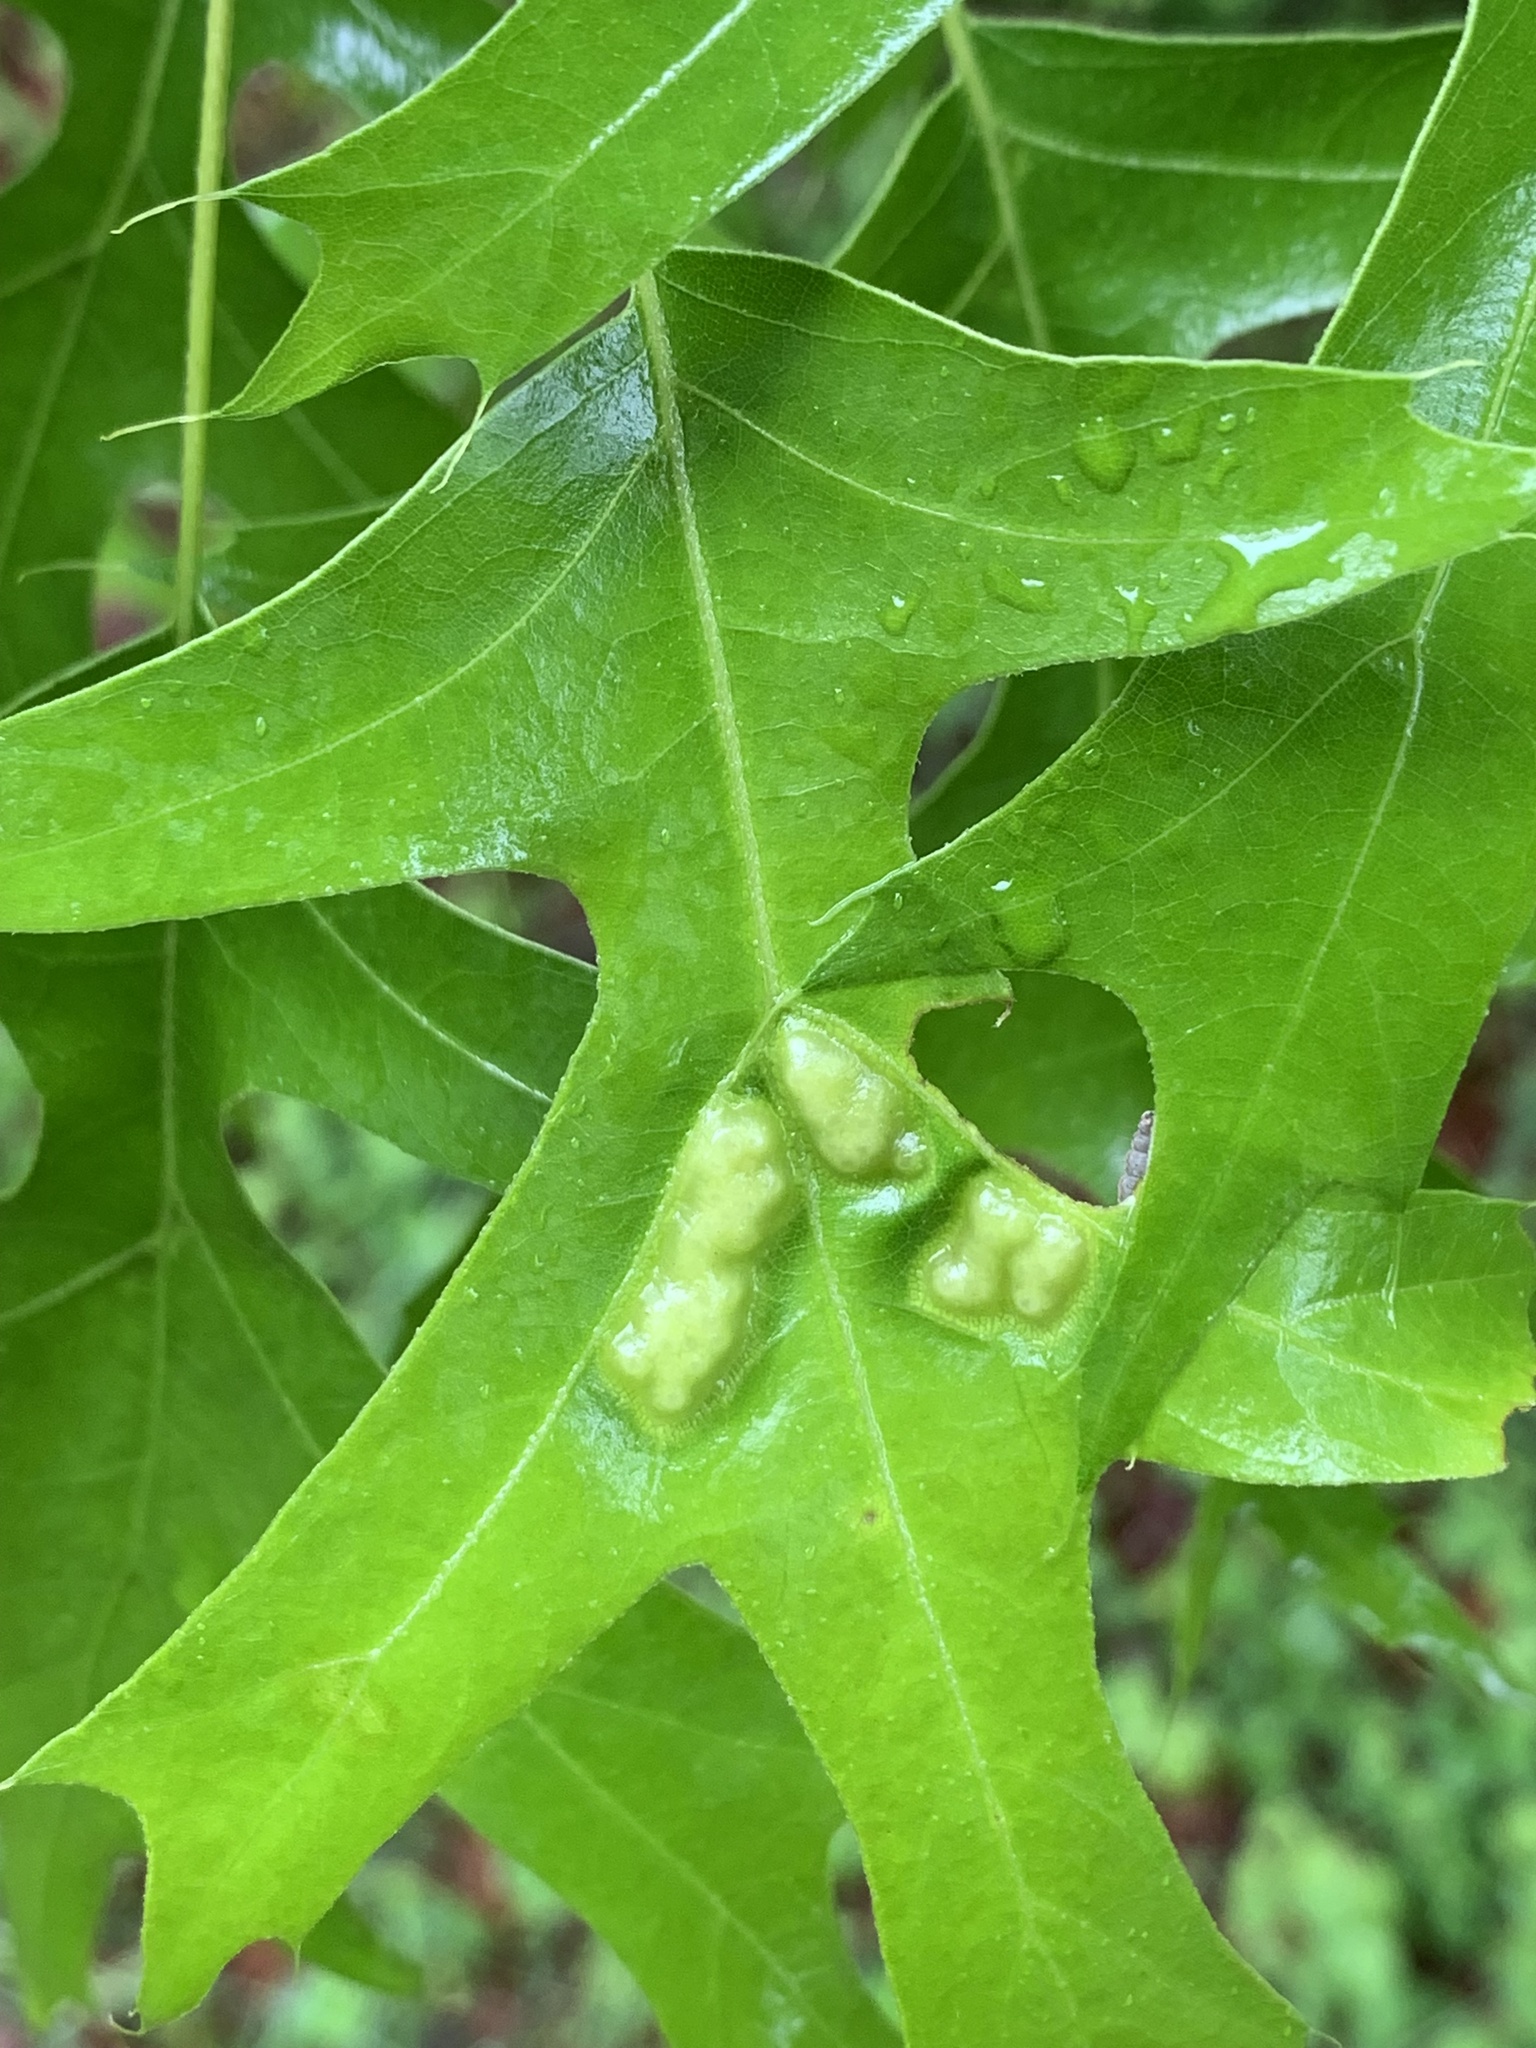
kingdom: Animalia
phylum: Arthropoda
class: Insecta
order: Hymenoptera
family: Cynipidae
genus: Callirhytis
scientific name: Callirhytis
